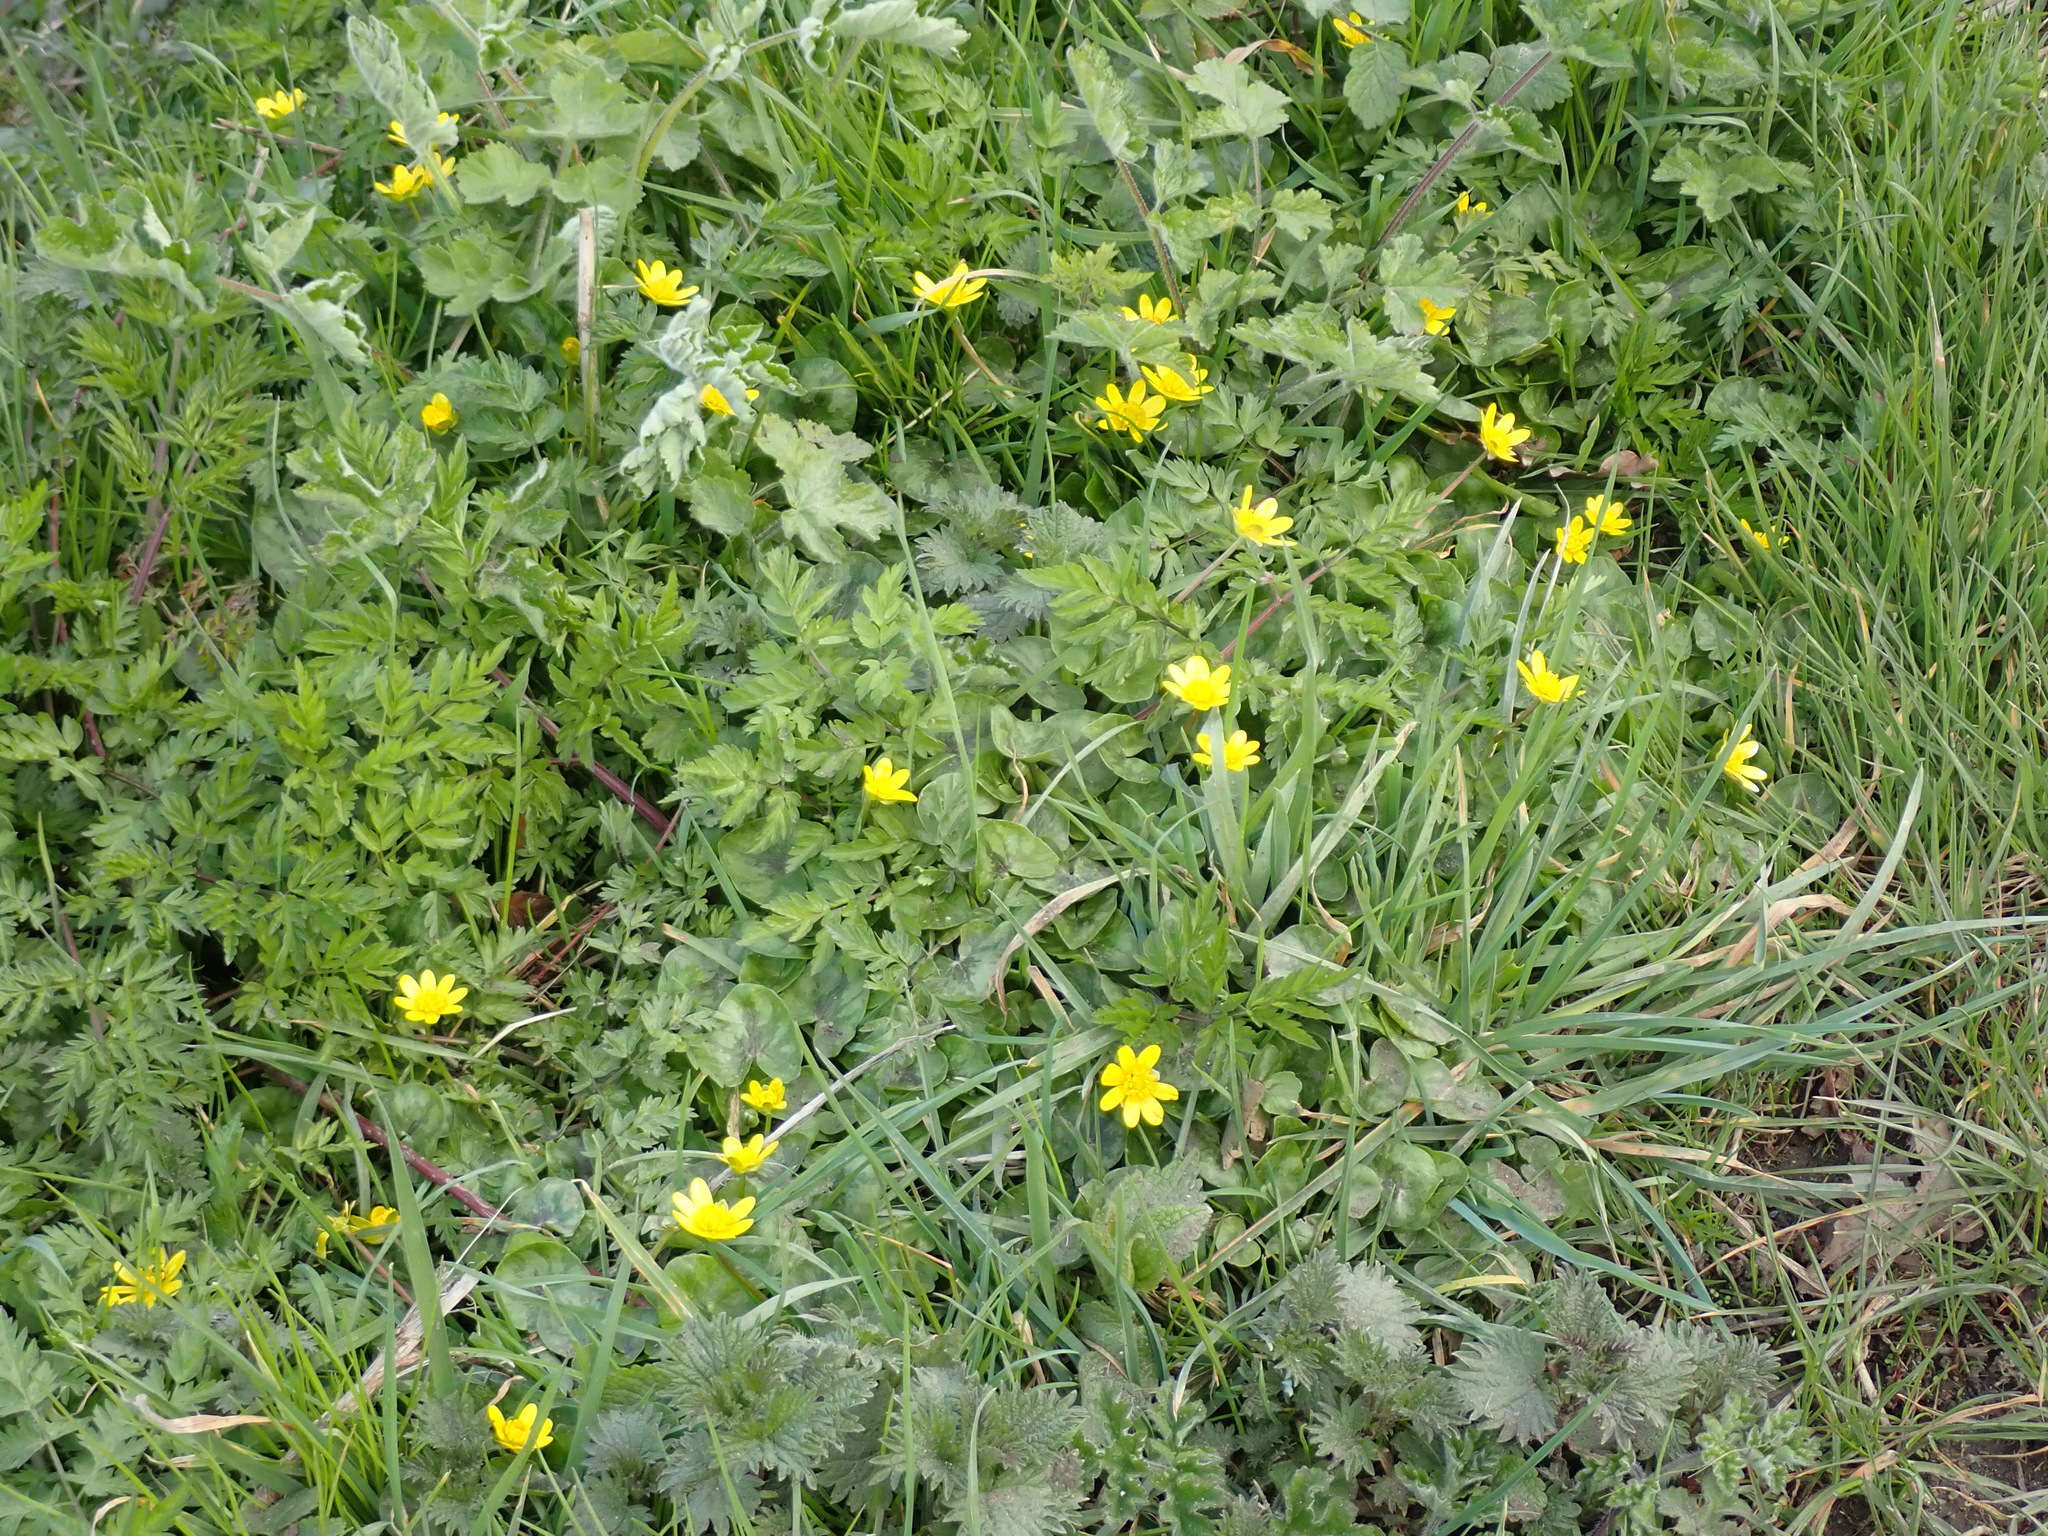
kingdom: Plantae
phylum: Tracheophyta
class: Magnoliopsida
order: Ranunculales
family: Ranunculaceae
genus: Ficaria
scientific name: Ficaria verna
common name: Lesser celandine
